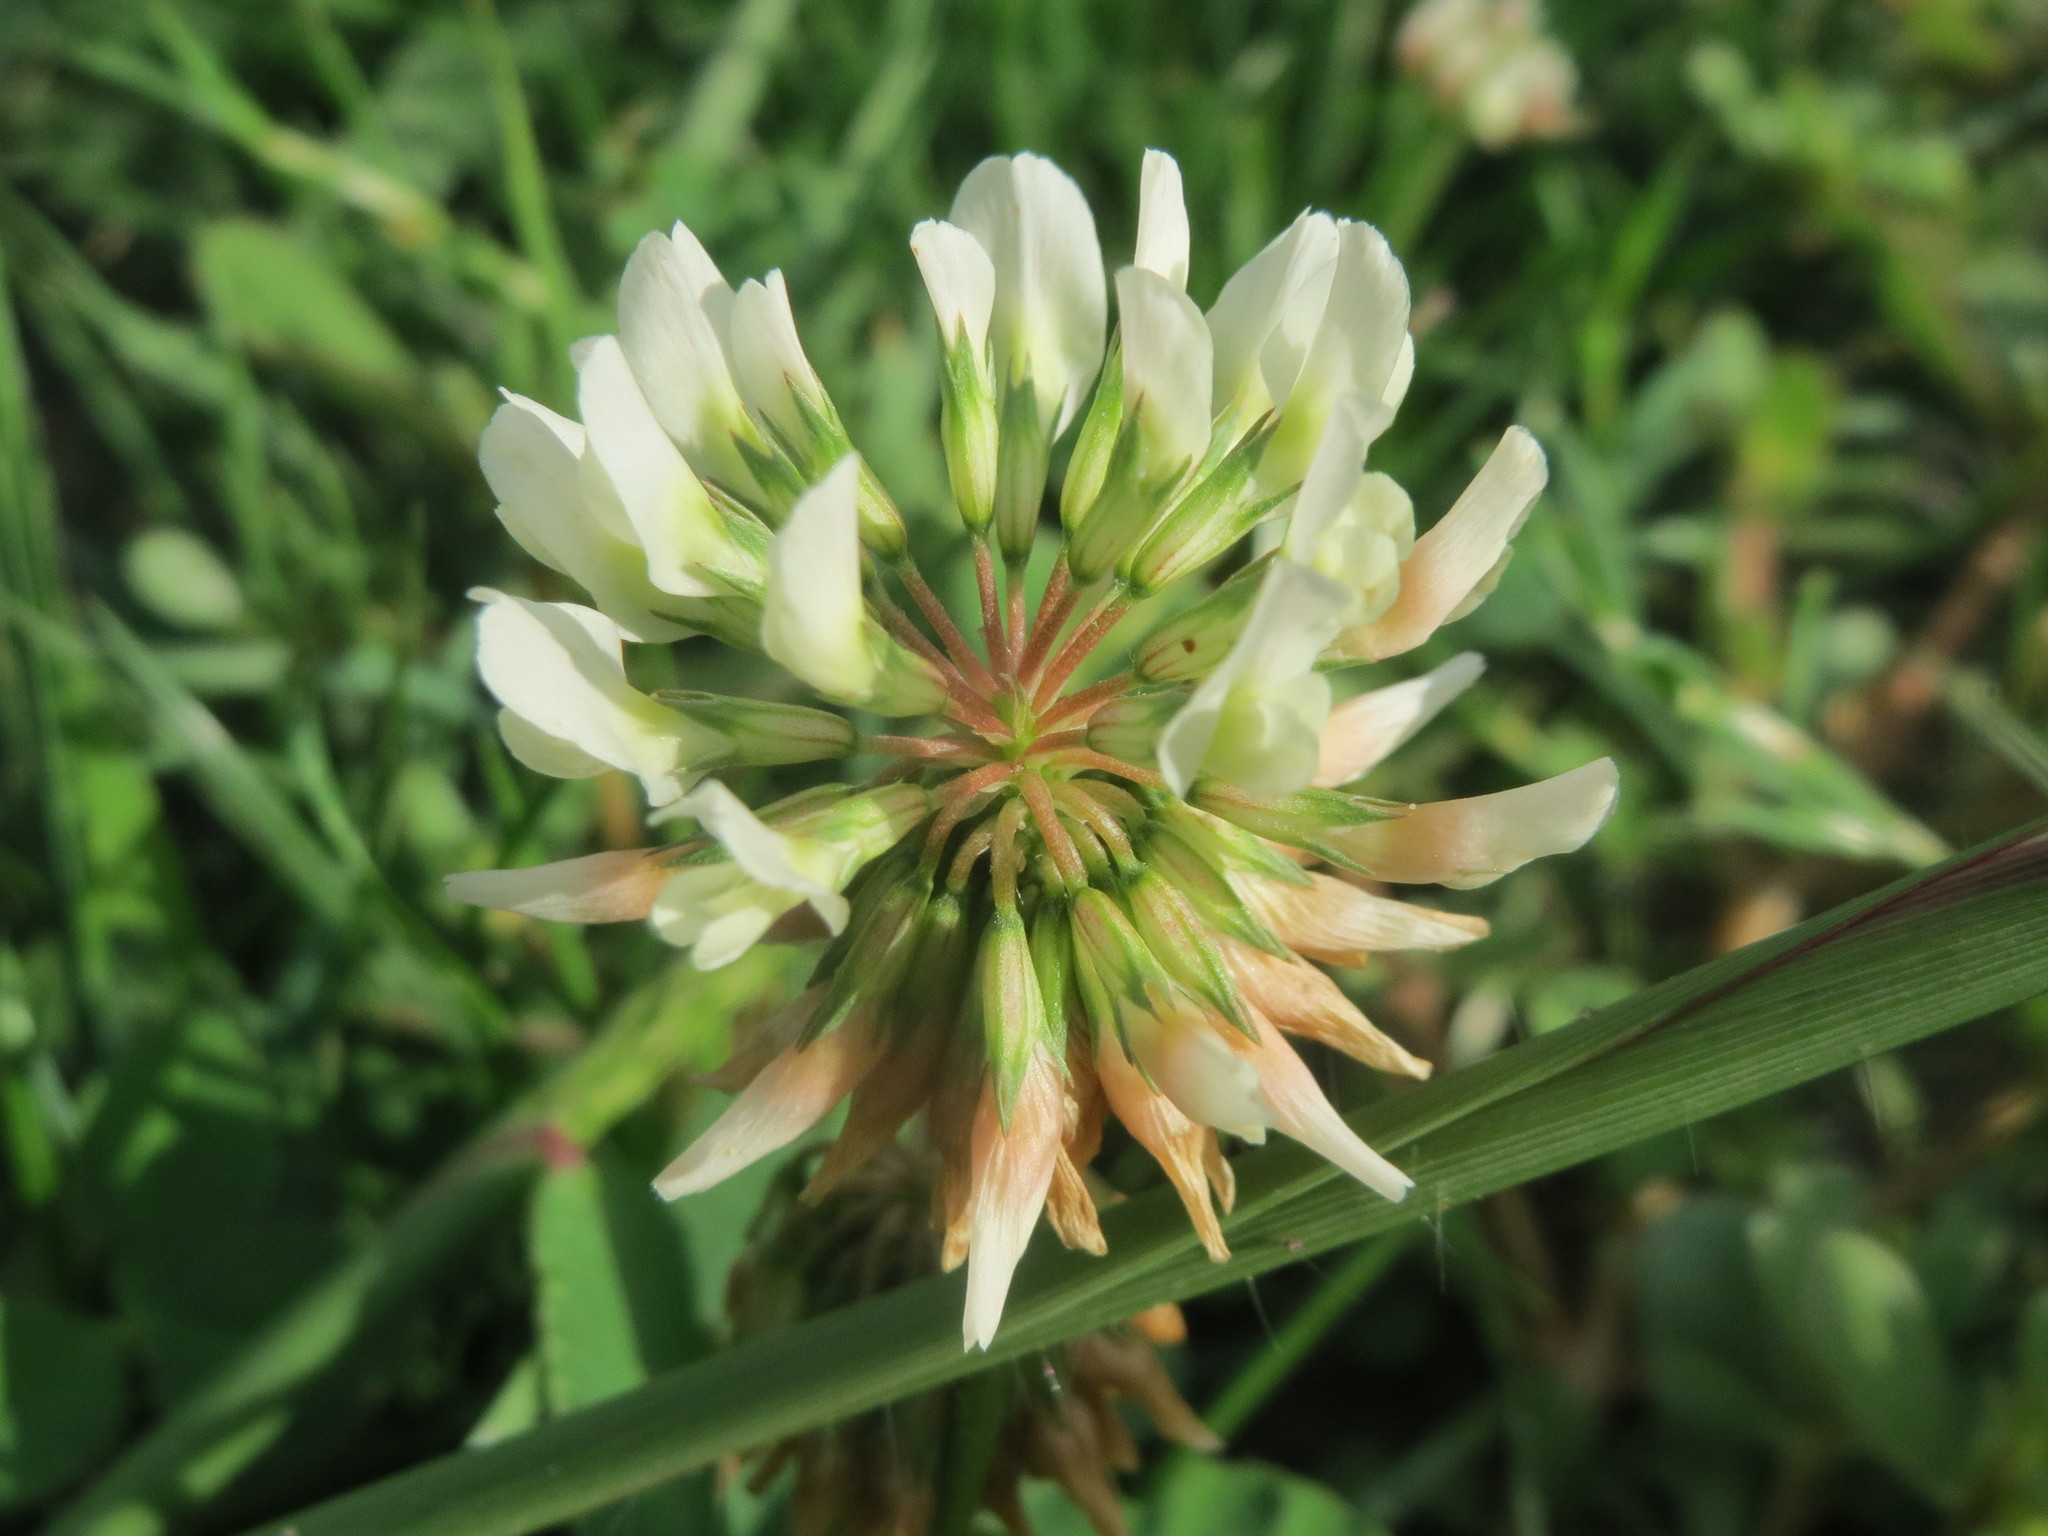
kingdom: Plantae
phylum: Tracheophyta
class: Magnoliopsida
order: Fabales
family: Fabaceae
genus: Trifolium
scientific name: Trifolium repens
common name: White clover
